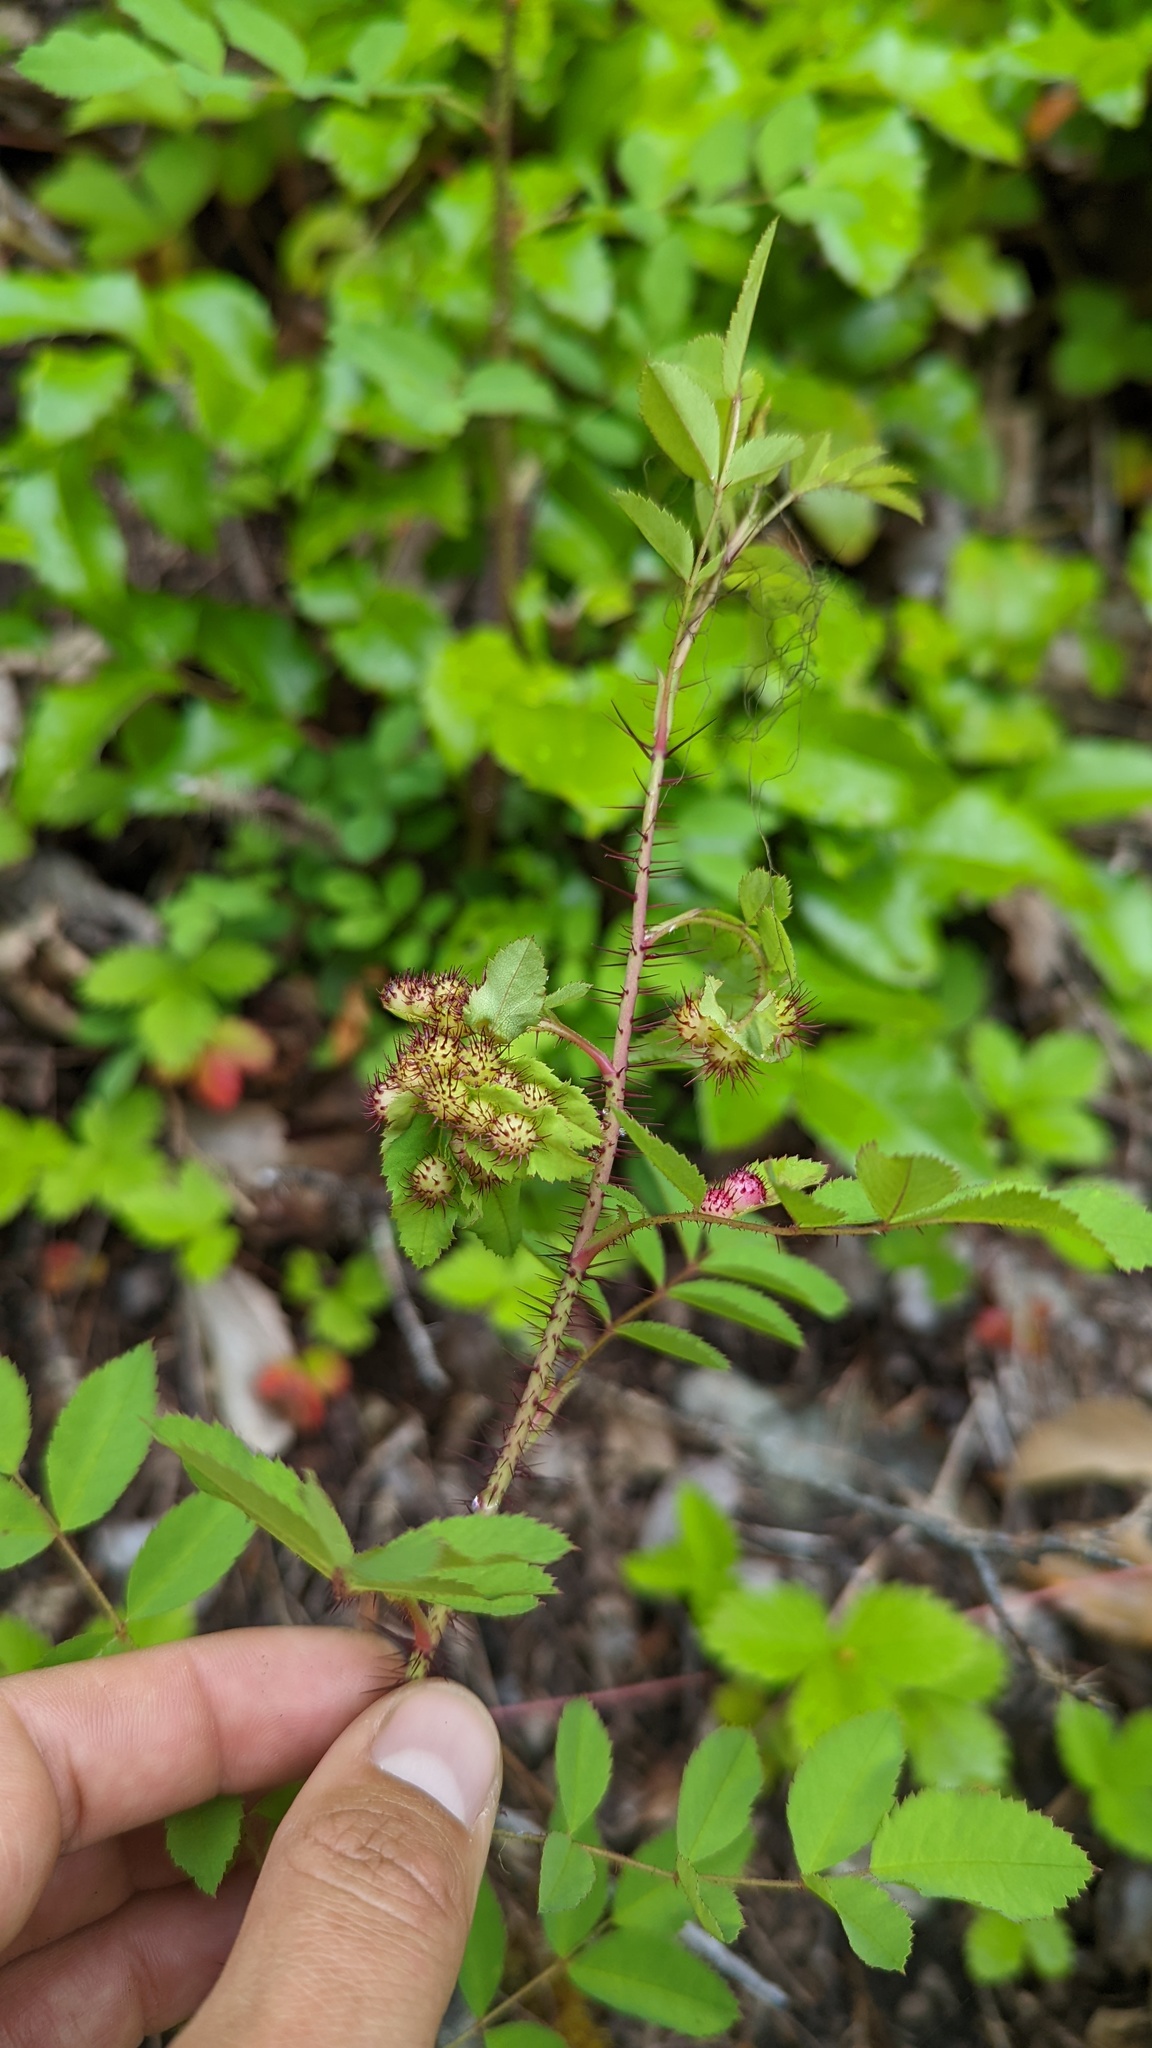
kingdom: Animalia
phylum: Arthropoda
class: Insecta
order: Hymenoptera
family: Cynipidae
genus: Diplolepis
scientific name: Diplolepis polita
